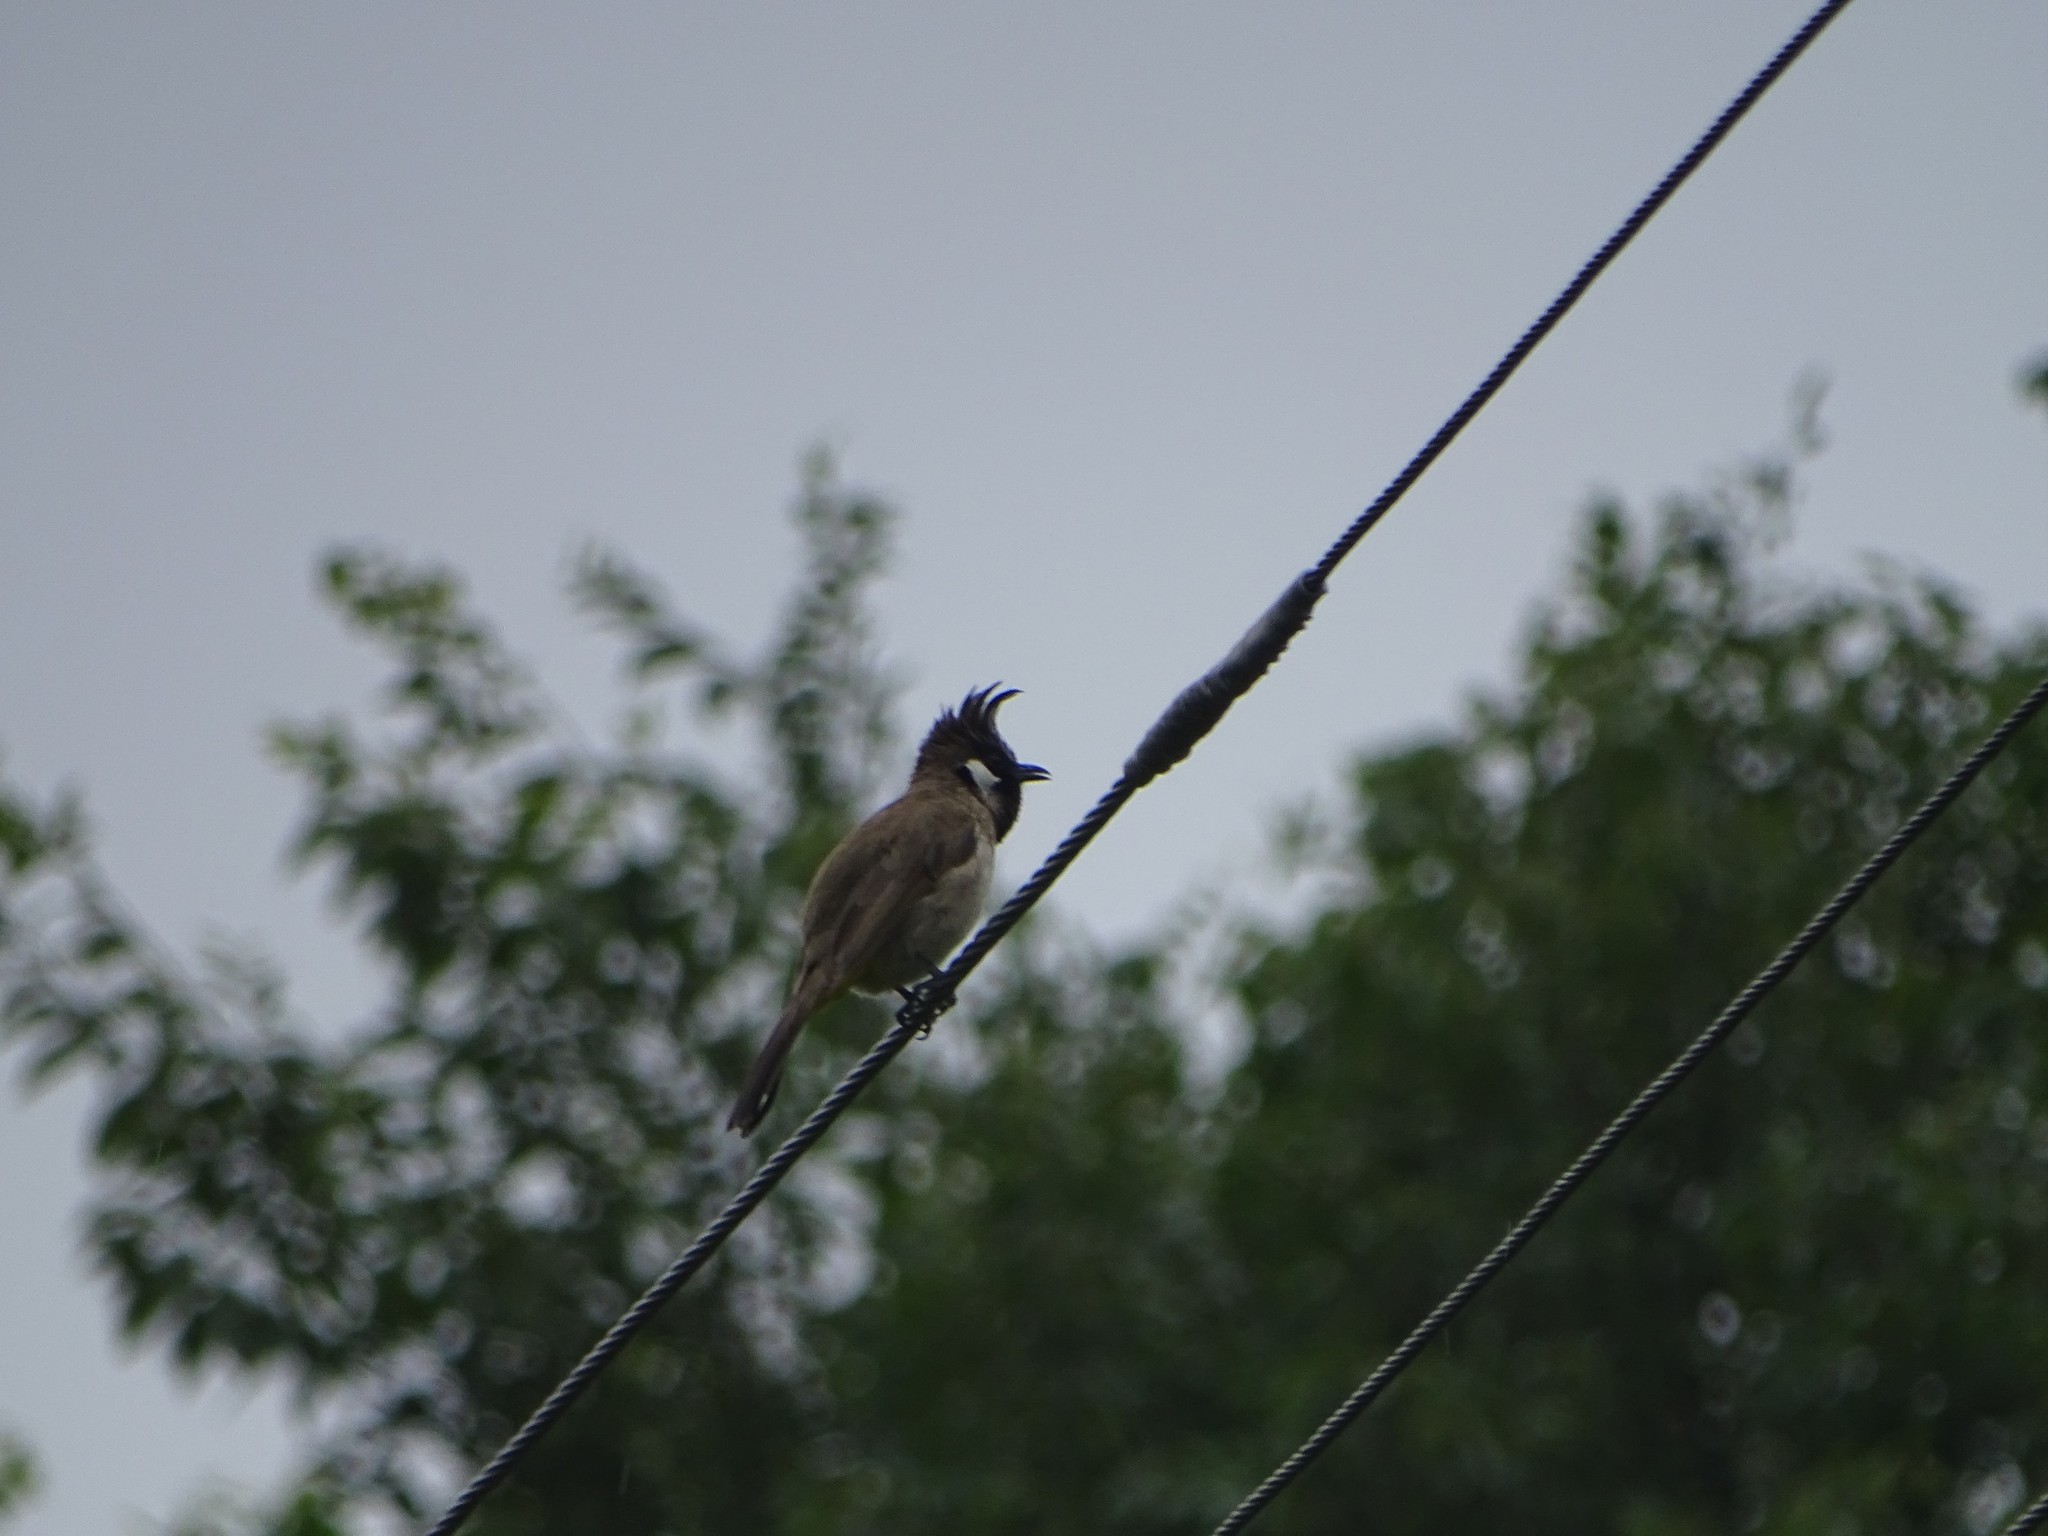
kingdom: Animalia
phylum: Chordata
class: Aves
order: Passeriformes
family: Pycnonotidae
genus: Pycnonotus
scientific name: Pycnonotus leucogenys
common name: Himalayan bulbul
